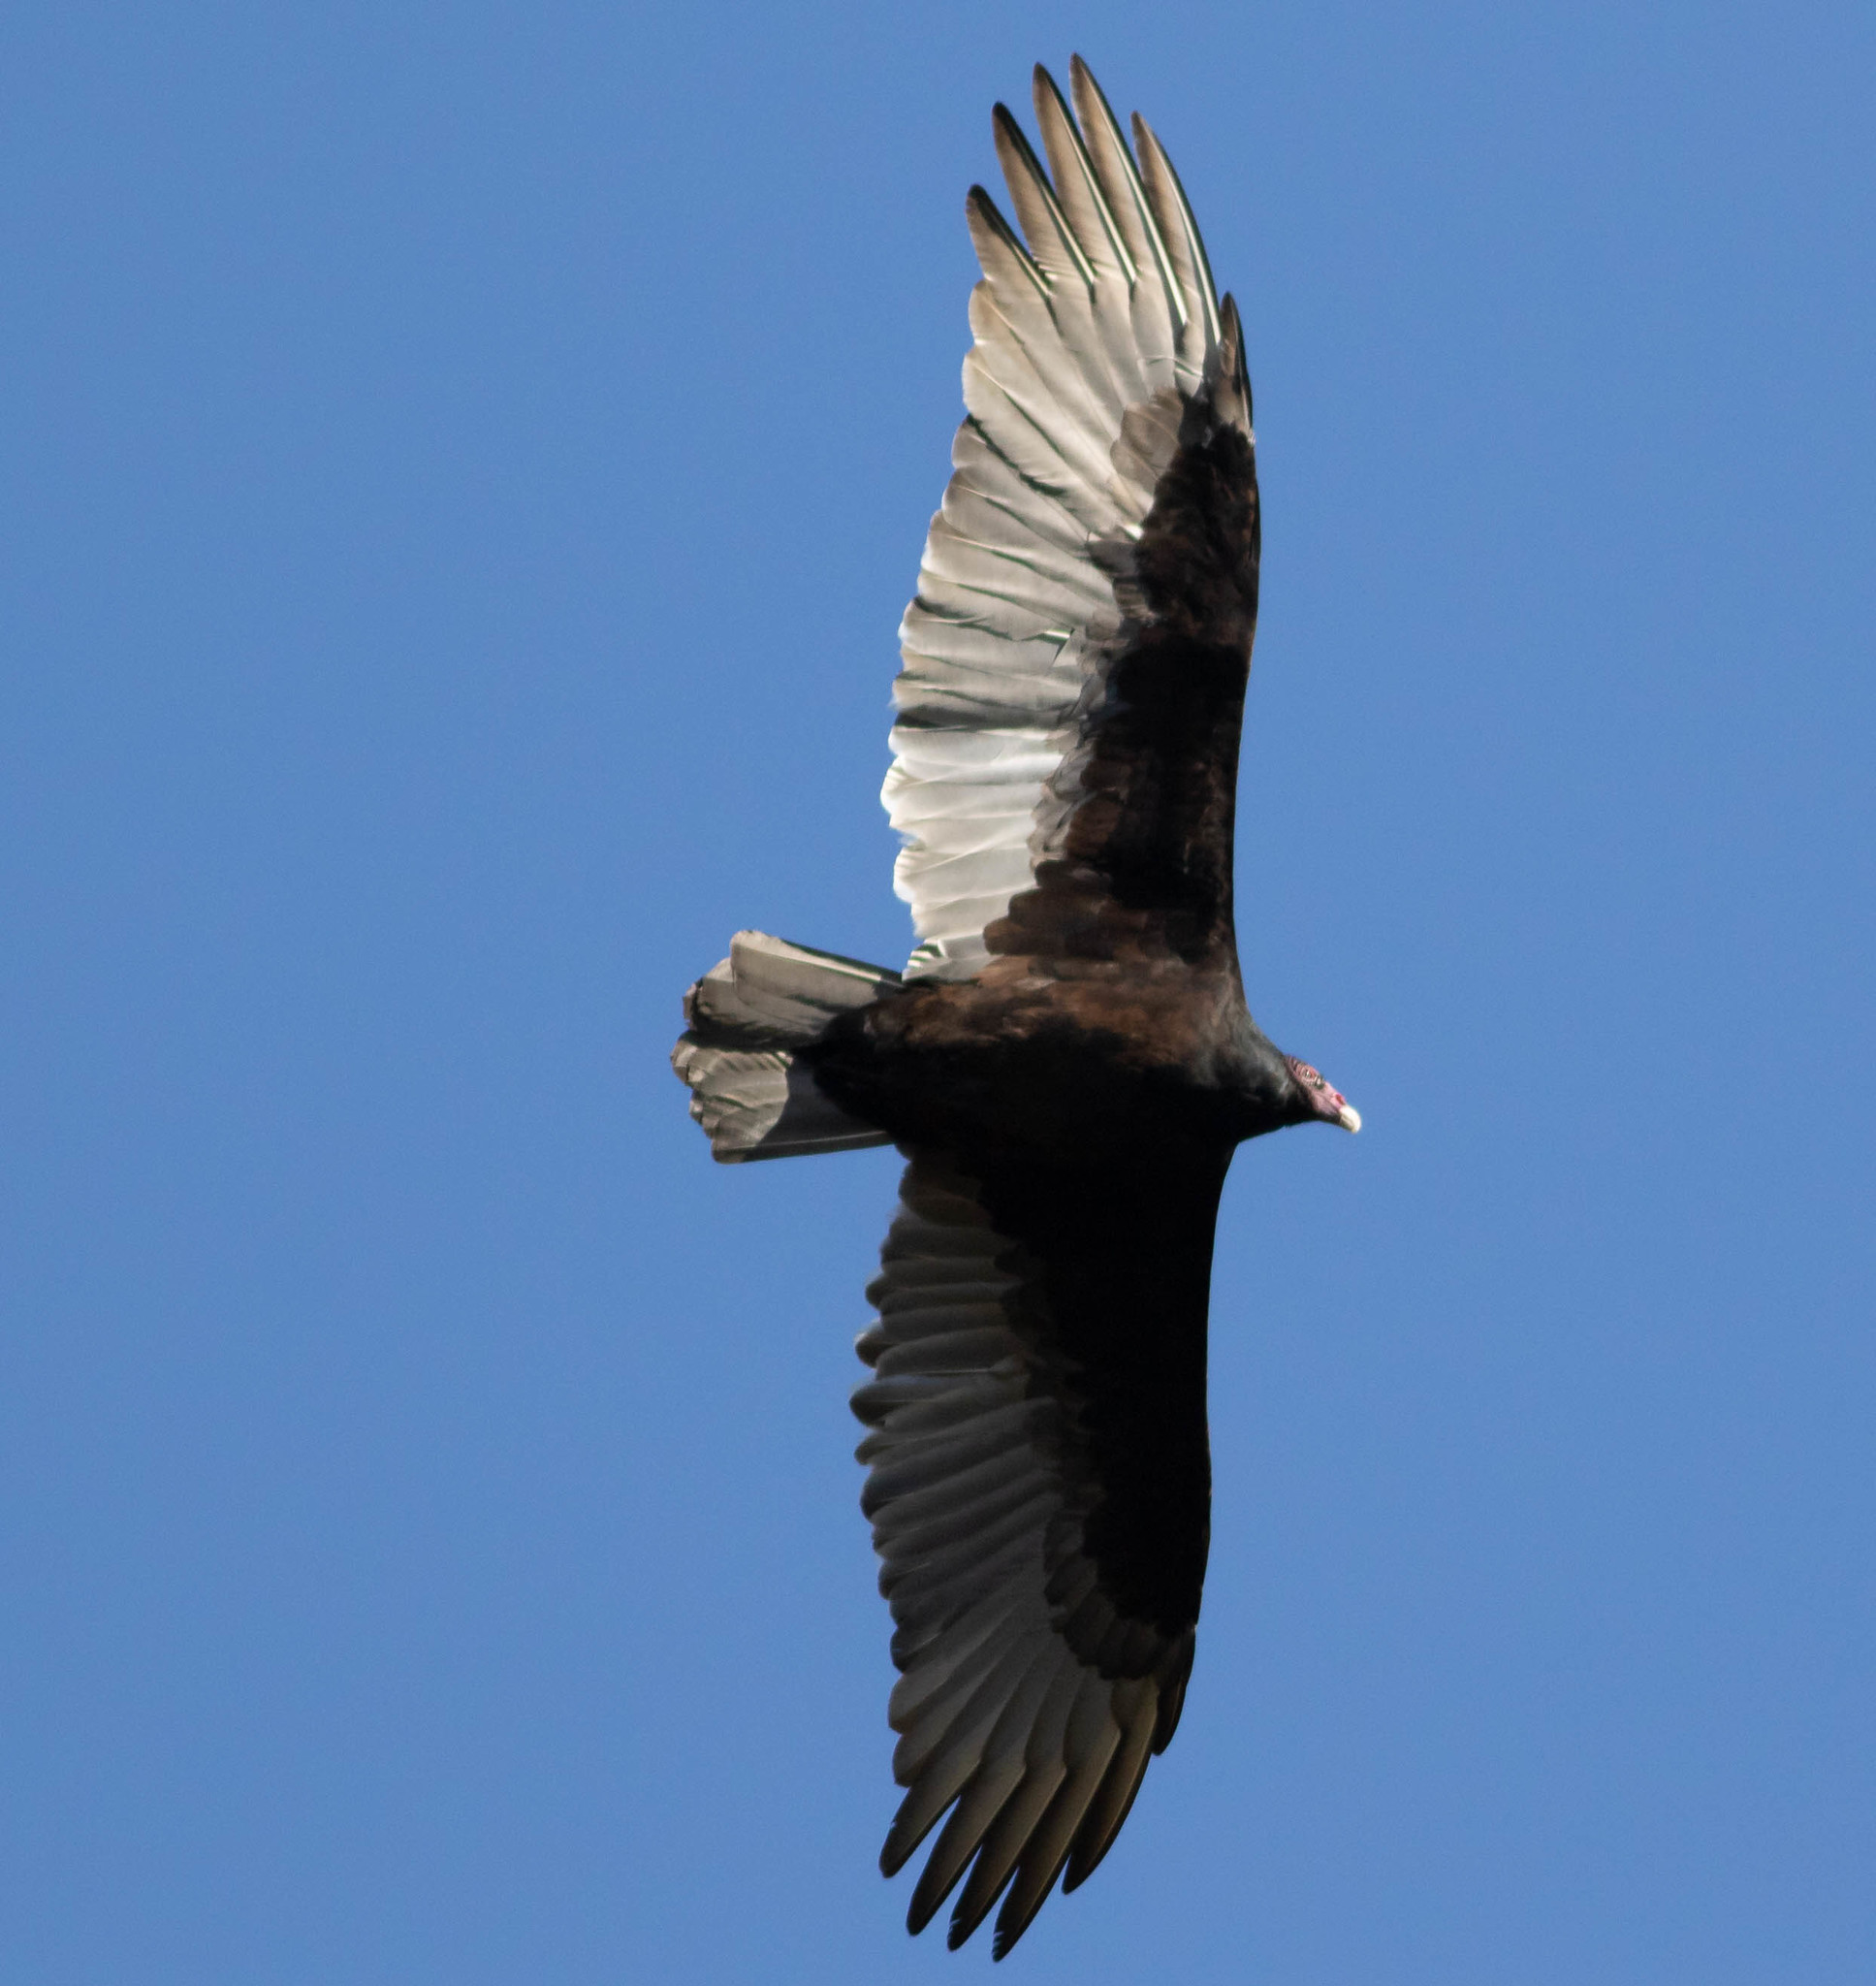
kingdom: Animalia
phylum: Chordata
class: Aves
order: Accipitriformes
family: Cathartidae
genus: Cathartes
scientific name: Cathartes aura
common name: Turkey vulture
